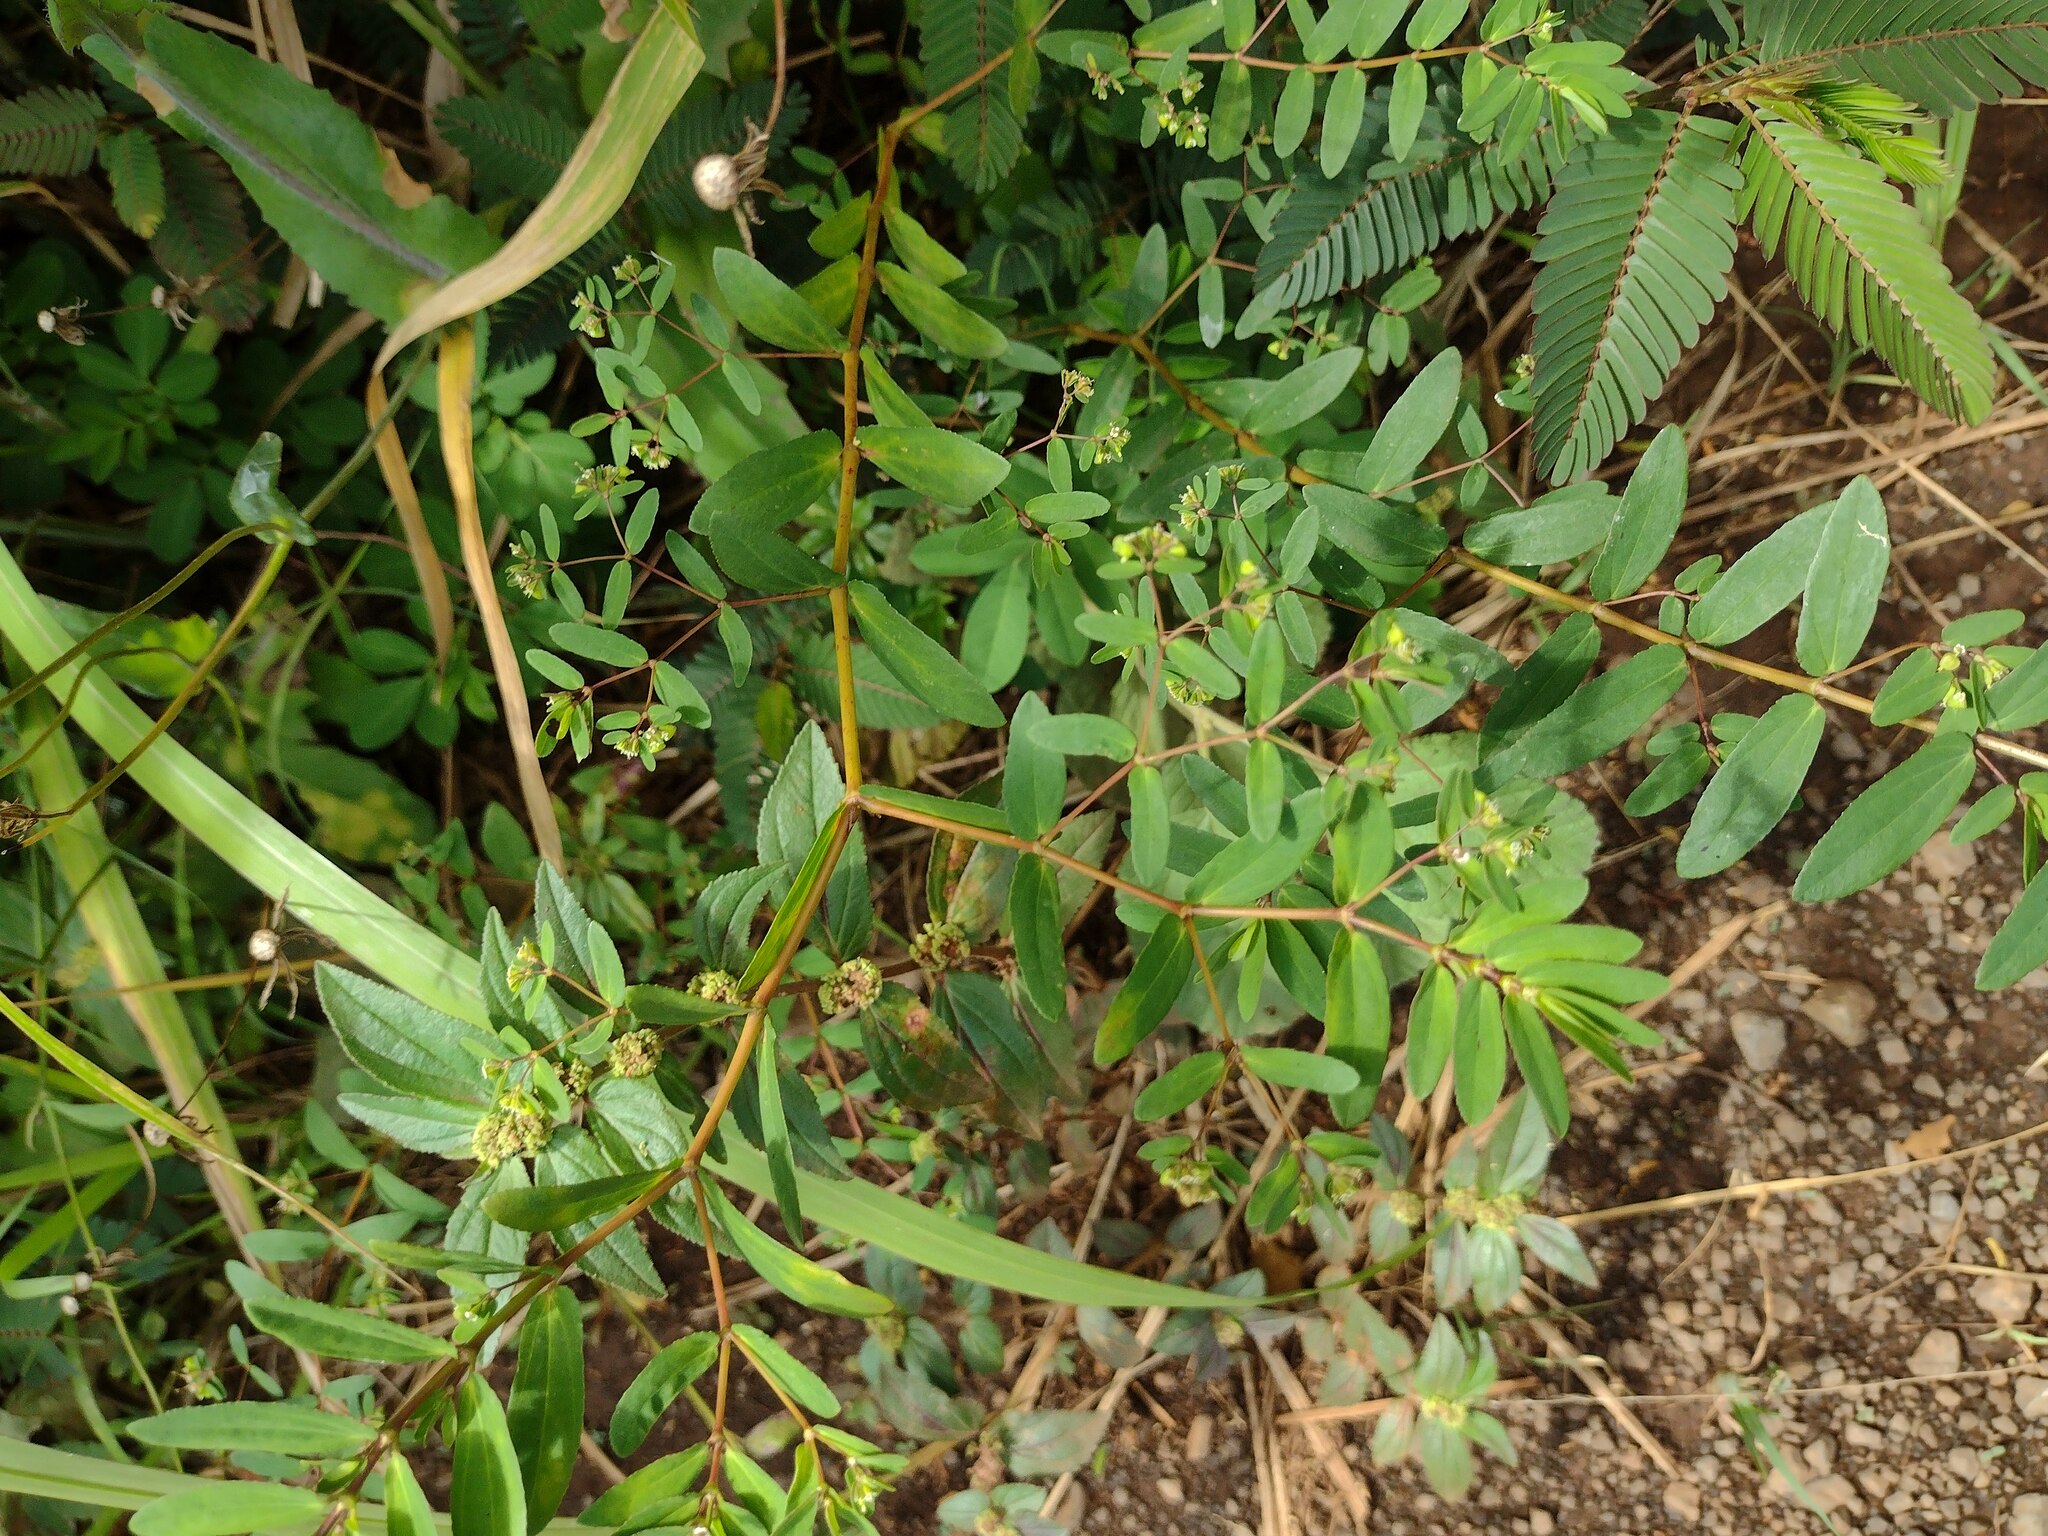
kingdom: Plantae
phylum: Tracheophyta
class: Magnoliopsida
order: Malpighiales
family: Euphorbiaceae
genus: Euphorbia
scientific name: Euphorbia hyssopifolia
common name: Hyssopleaf sandmat
